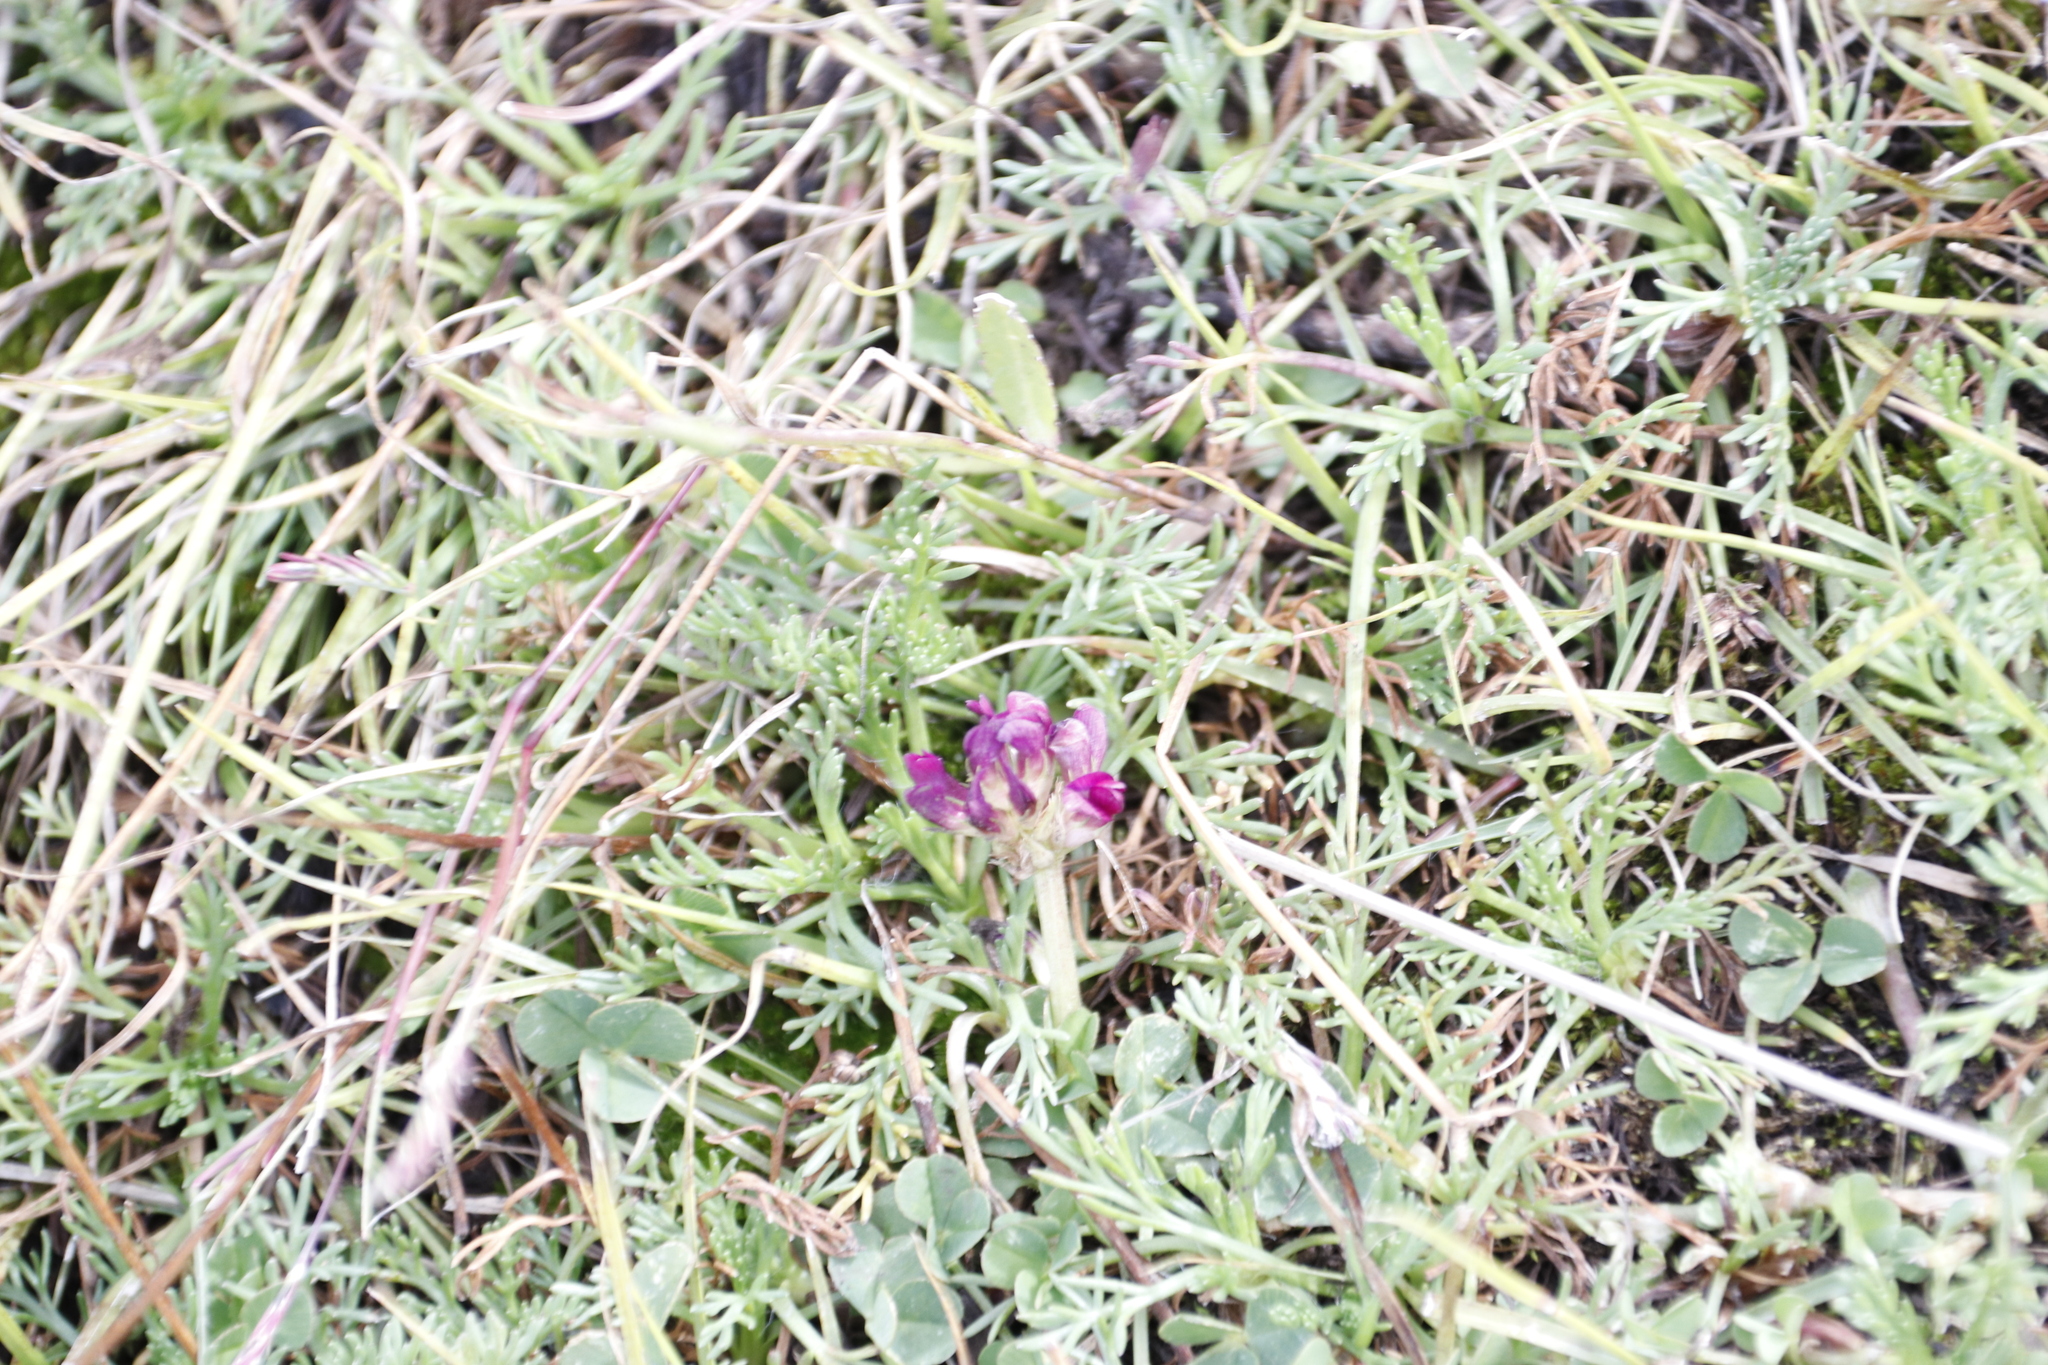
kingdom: Plantae
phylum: Tracheophyta
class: Magnoliopsida
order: Fabales
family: Fabaceae
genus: Trifolium
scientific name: Trifolium burchellianum
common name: Burchell's clover
